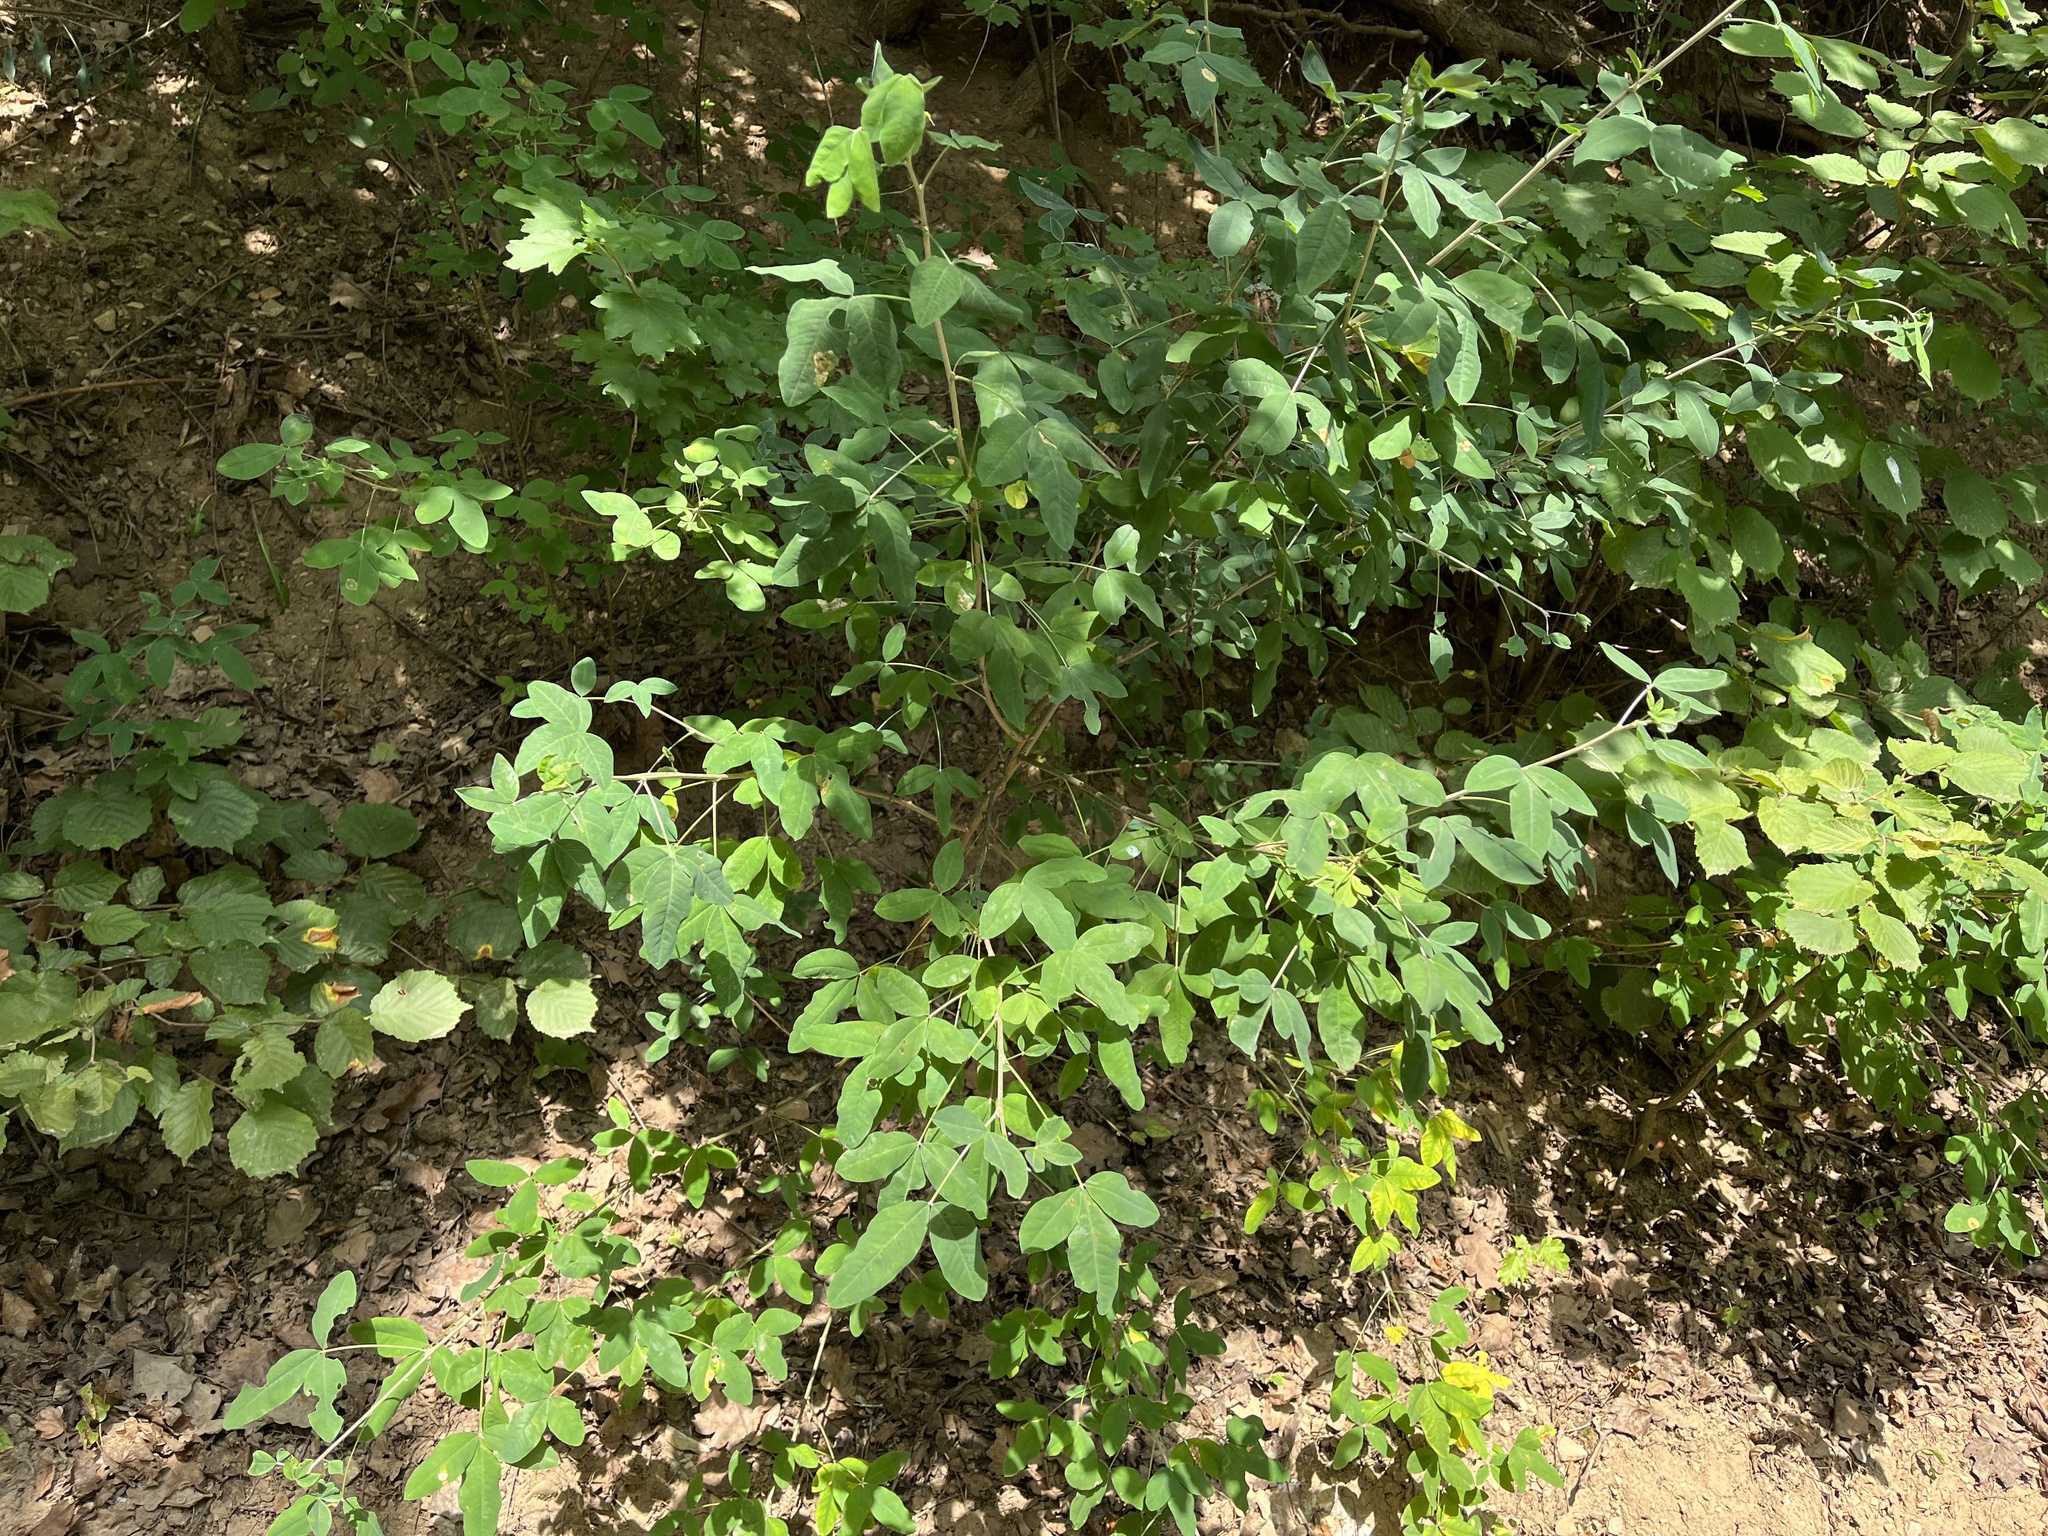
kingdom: Plantae
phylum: Tracheophyta
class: Magnoliopsida
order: Fabales
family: Fabaceae
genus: Laburnum
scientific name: Laburnum anagyroides
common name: Laburnum
